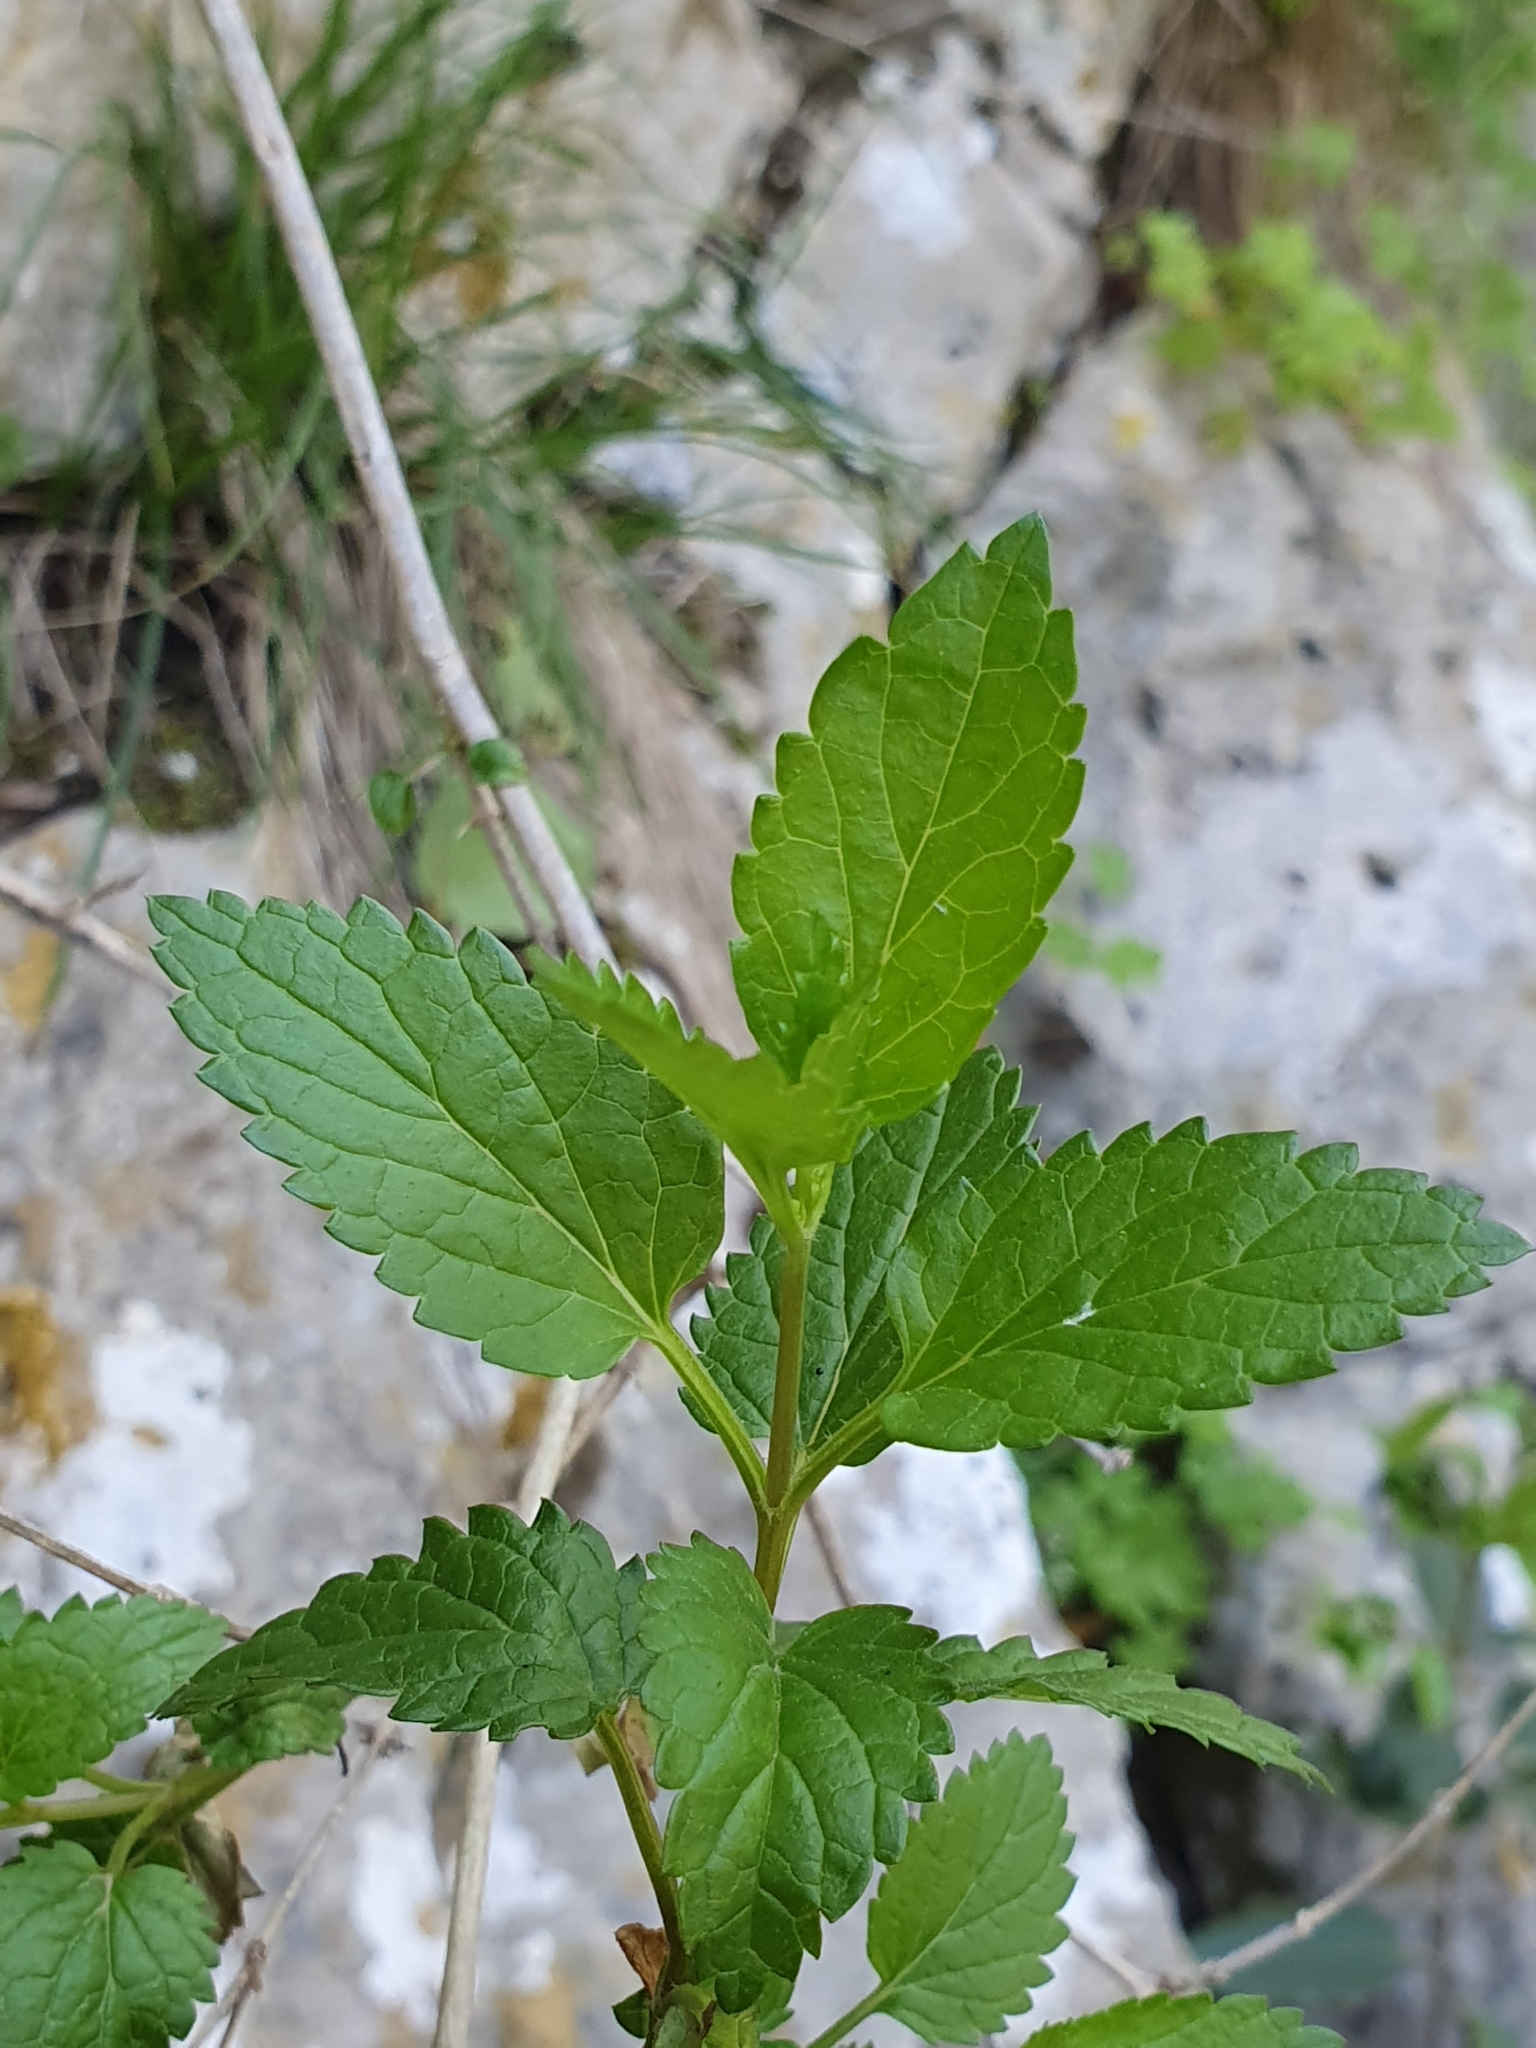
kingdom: Plantae
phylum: Tracheophyta
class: Magnoliopsida
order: Lamiales
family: Lamiaceae
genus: Prasium
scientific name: Prasium majus
